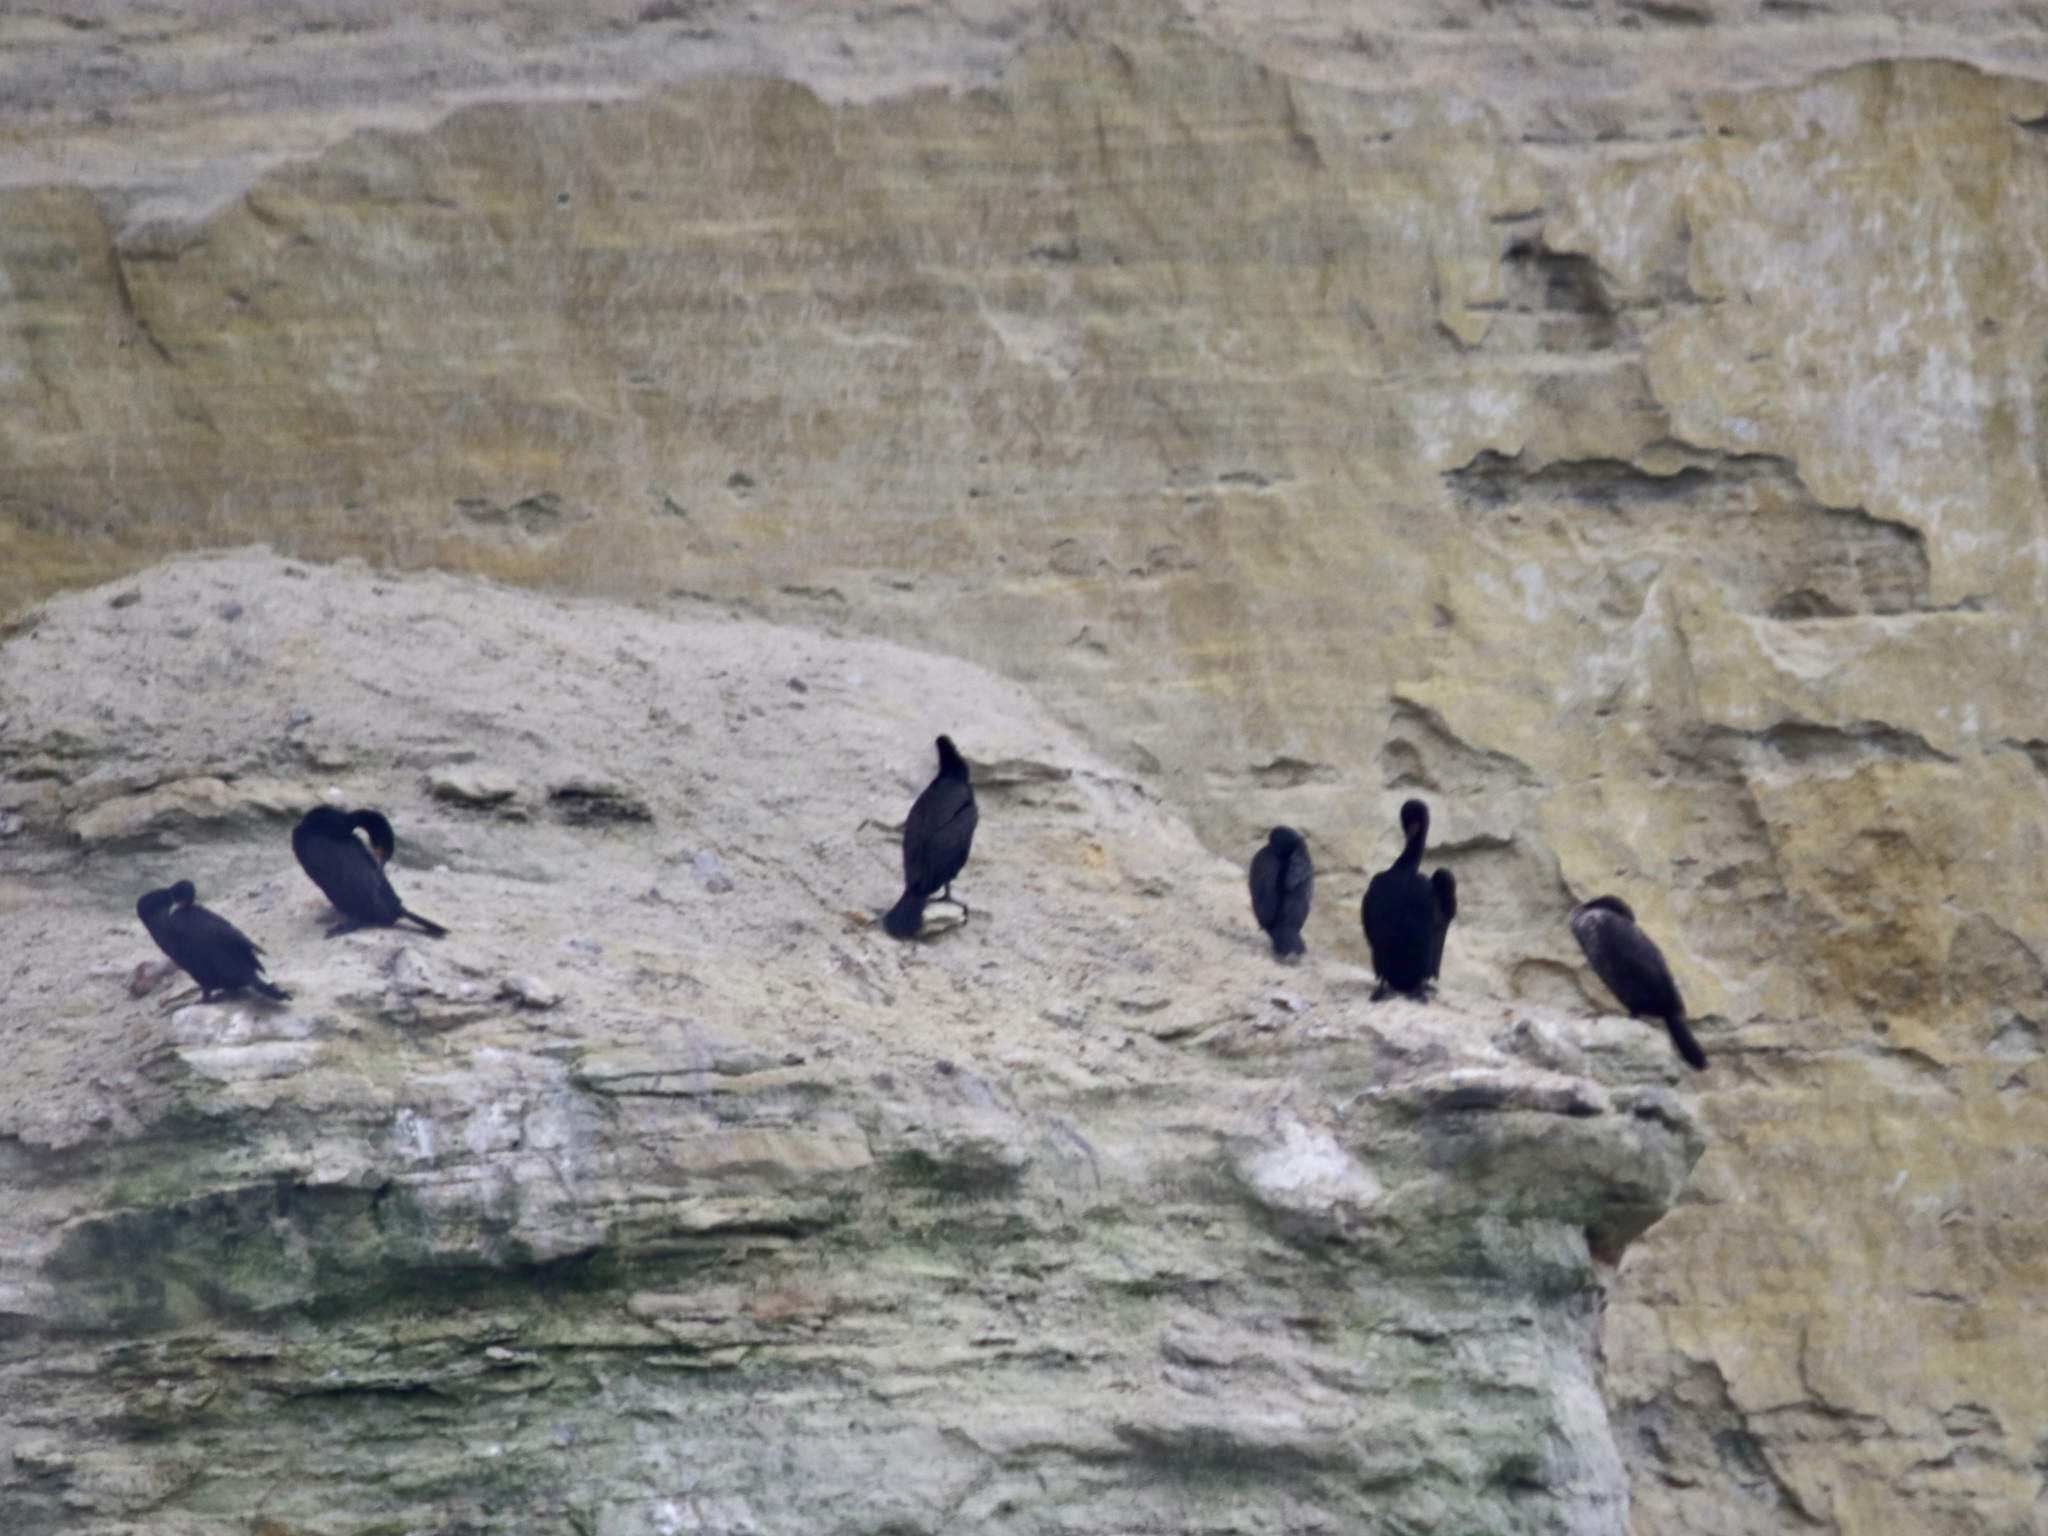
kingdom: Animalia
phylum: Chordata
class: Aves
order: Suliformes
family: Phalacrocoracidae
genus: Phalacrocorax
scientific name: Phalacrocorax auritus
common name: Double-crested cormorant
